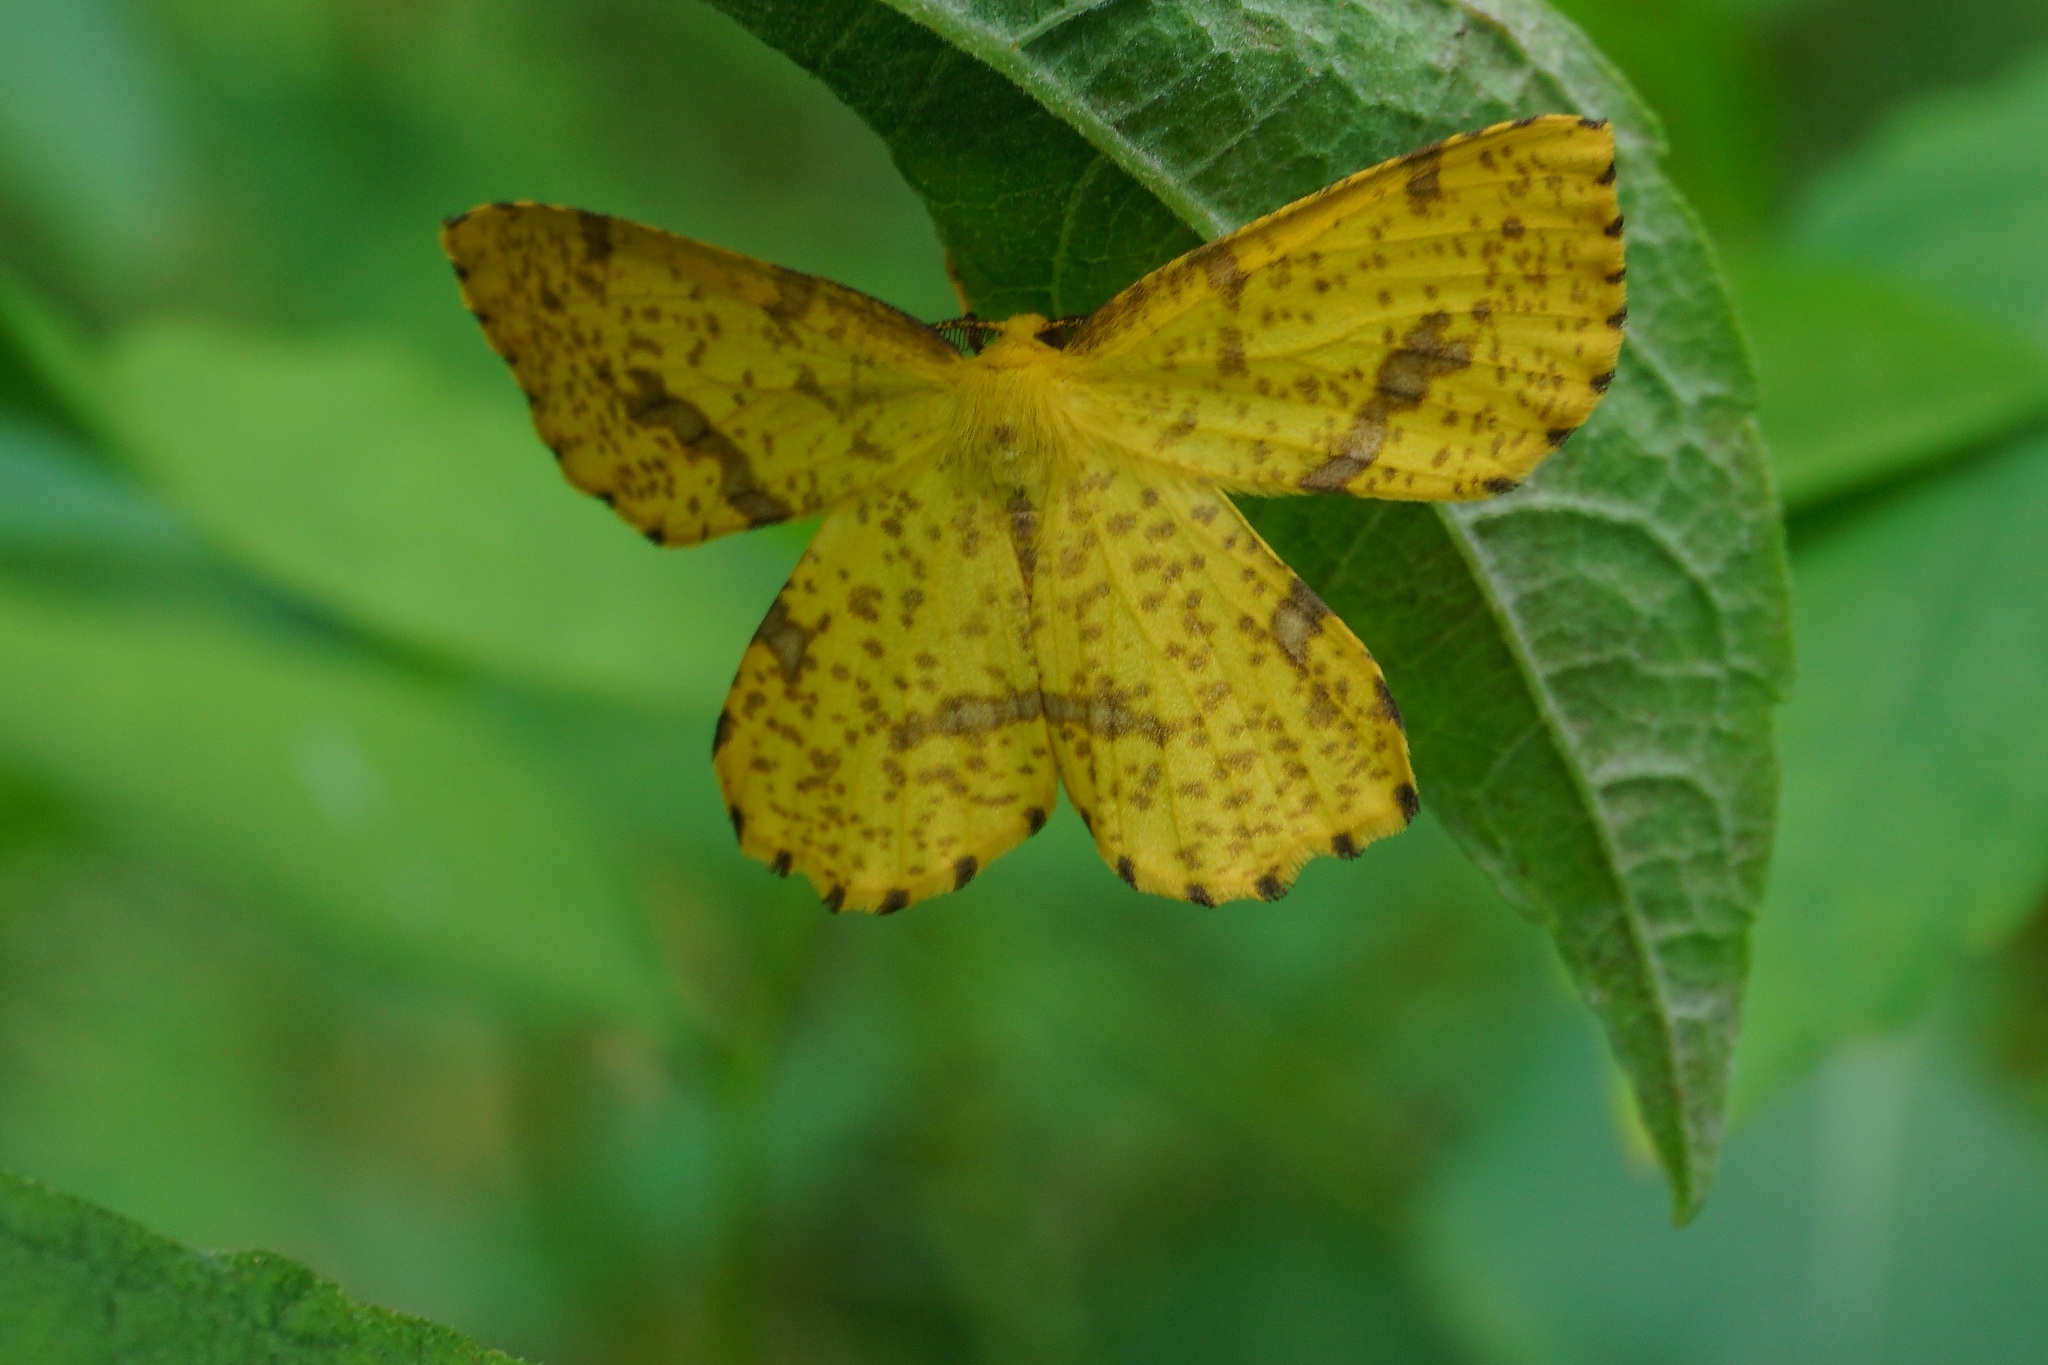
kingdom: Animalia
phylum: Arthropoda
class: Insecta
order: Lepidoptera
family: Geometridae
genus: Xanthotype
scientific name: Xanthotype
